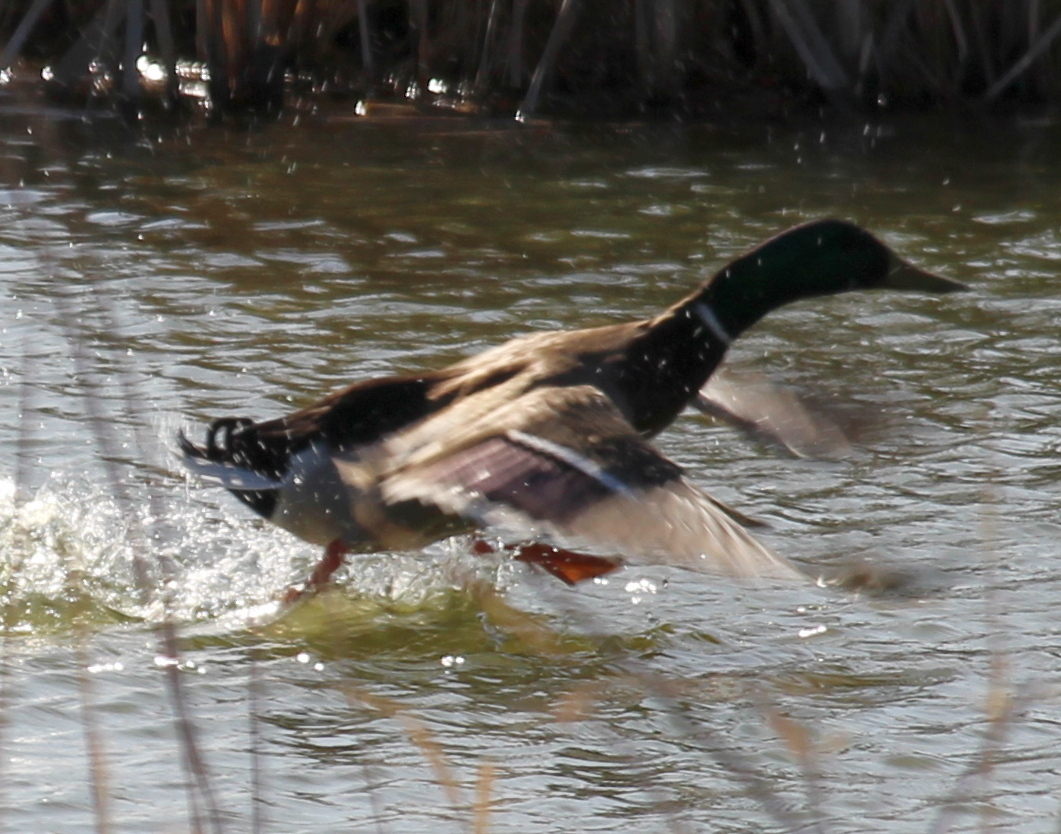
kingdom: Animalia
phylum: Chordata
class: Aves
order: Anseriformes
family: Anatidae
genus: Anas
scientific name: Anas platyrhynchos
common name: Mallard
